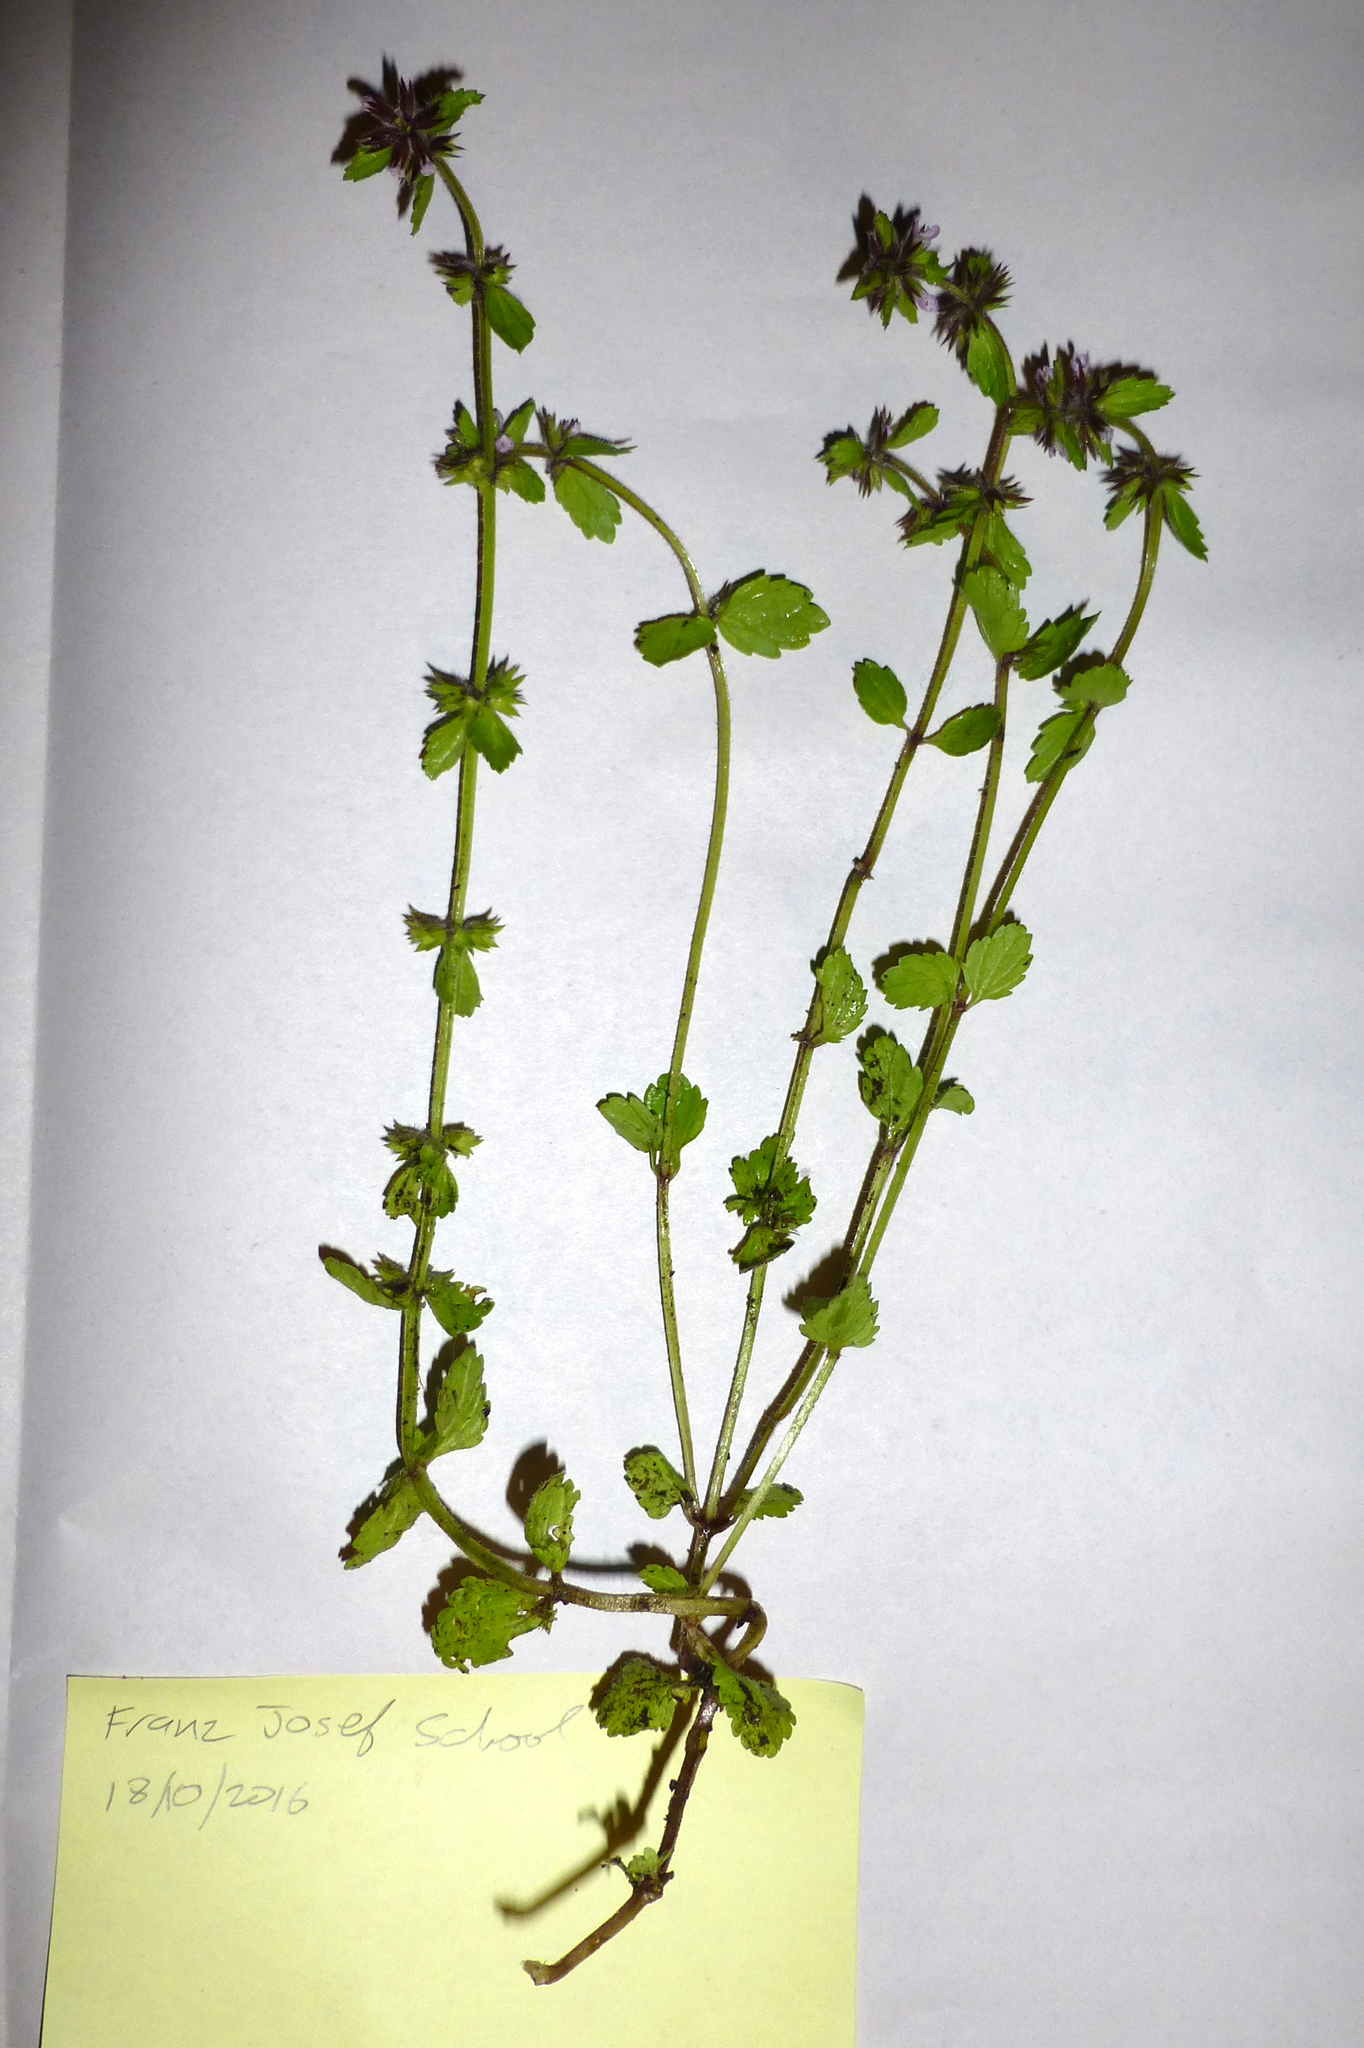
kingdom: Plantae
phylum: Tracheophyta
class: Magnoliopsida
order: Lamiales
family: Lamiaceae
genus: Stachys
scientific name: Stachys arvensis
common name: Field woundwort
